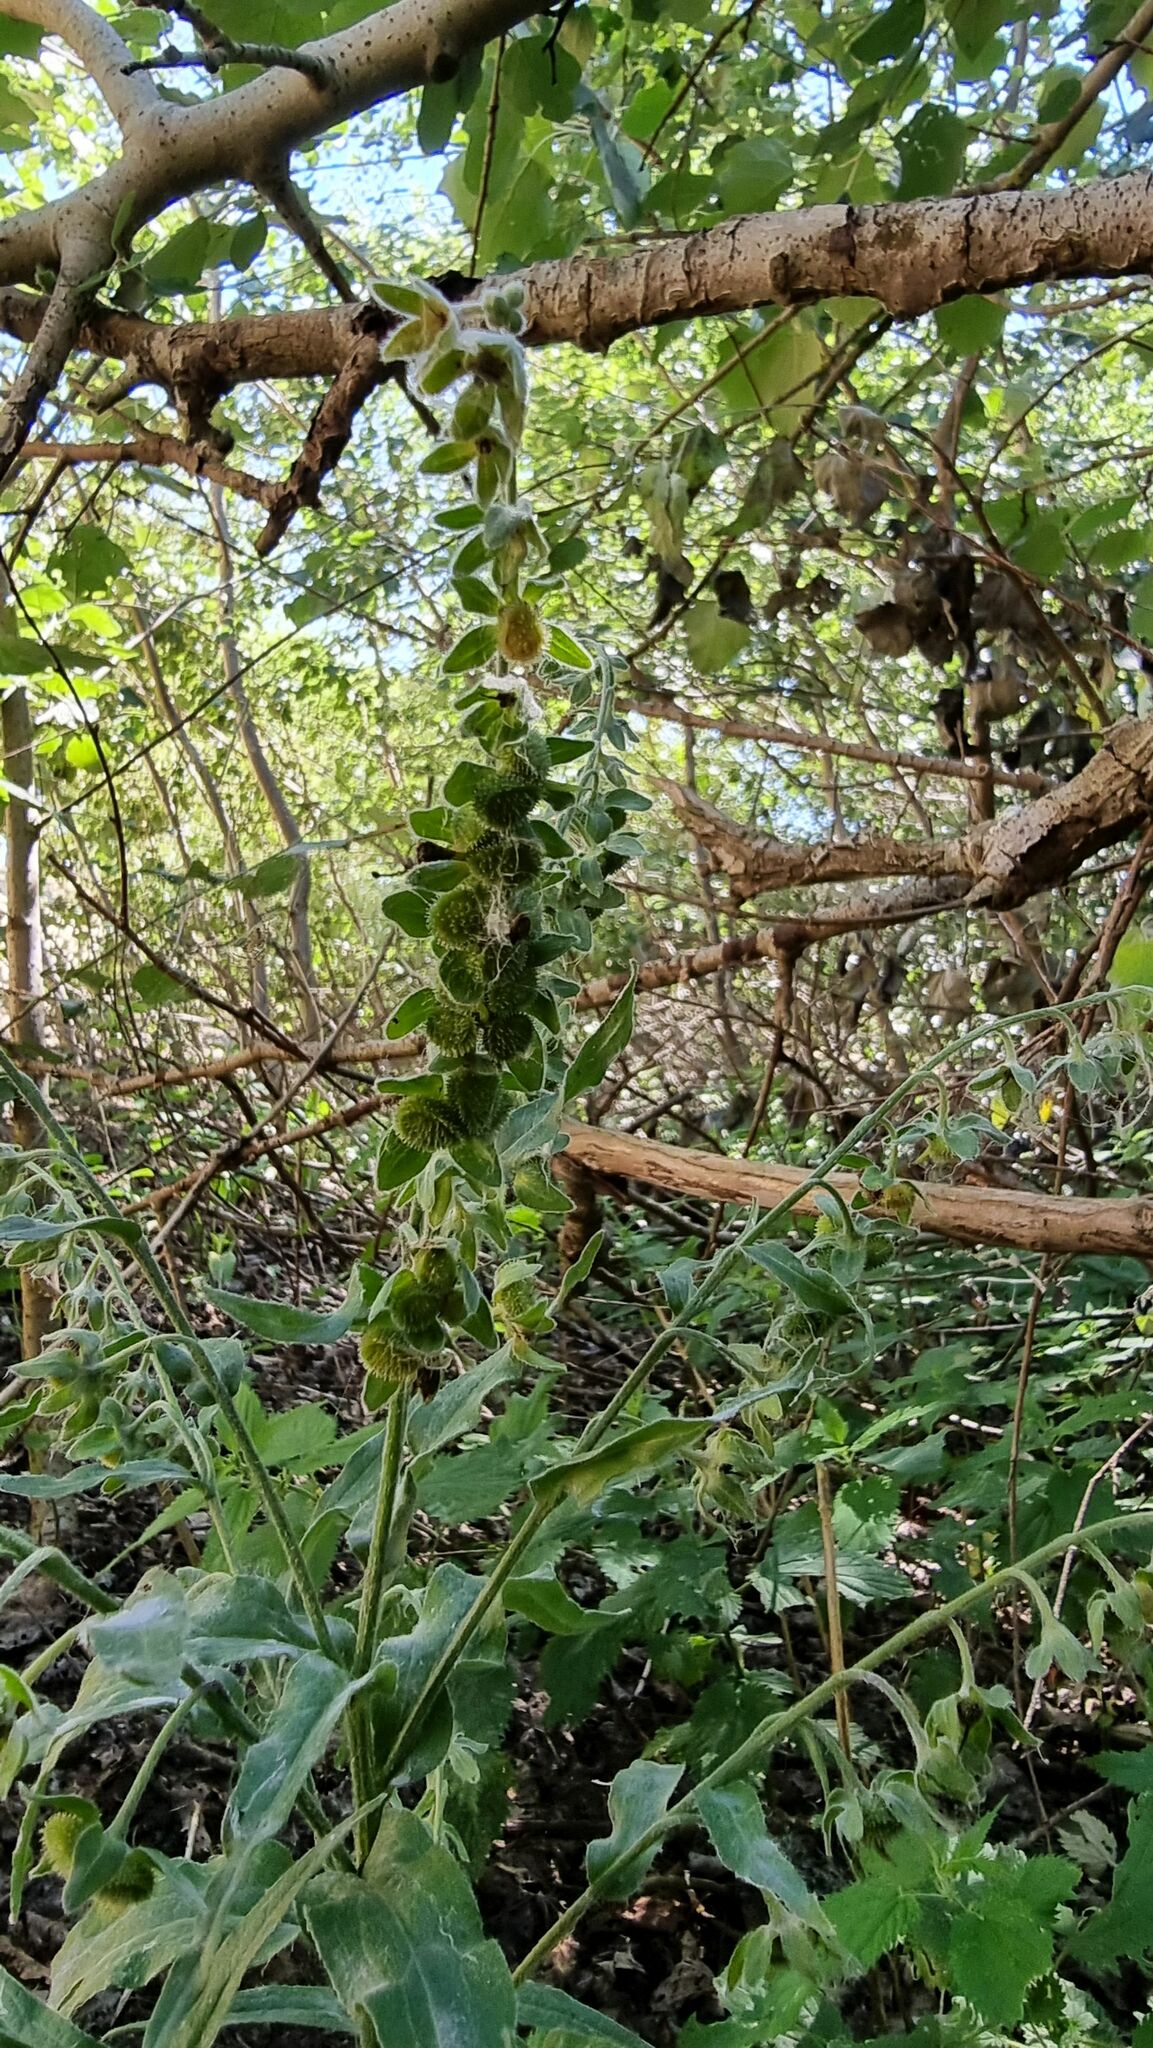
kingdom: Plantae
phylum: Tracheophyta
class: Magnoliopsida
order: Boraginales
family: Boraginaceae
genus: Cynoglossum
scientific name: Cynoglossum officinale
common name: Hound's-tongue
